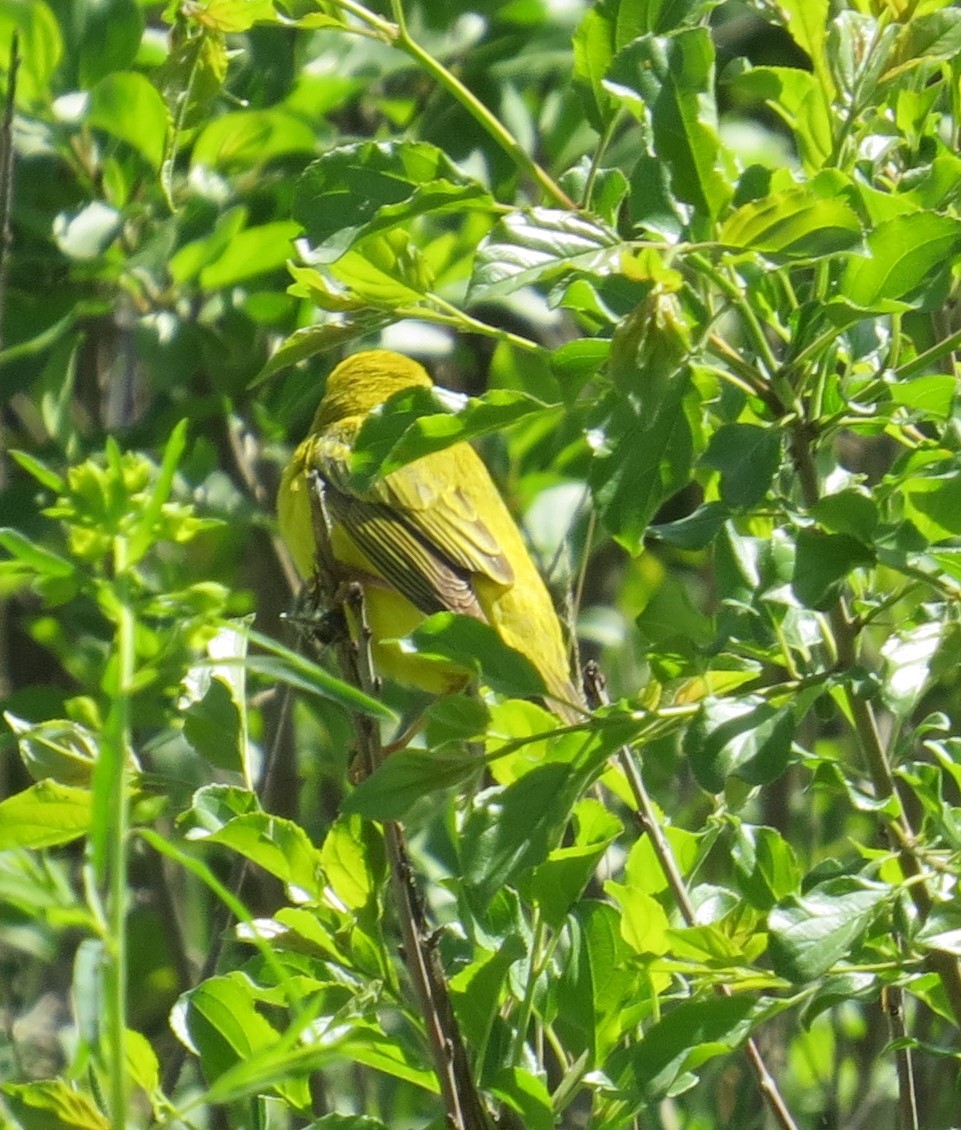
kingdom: Animalia
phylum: Chordata
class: Aves
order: Passeriformes
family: Parulidae
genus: Setophaga
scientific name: Setophaga petechia
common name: Yellow warbler
